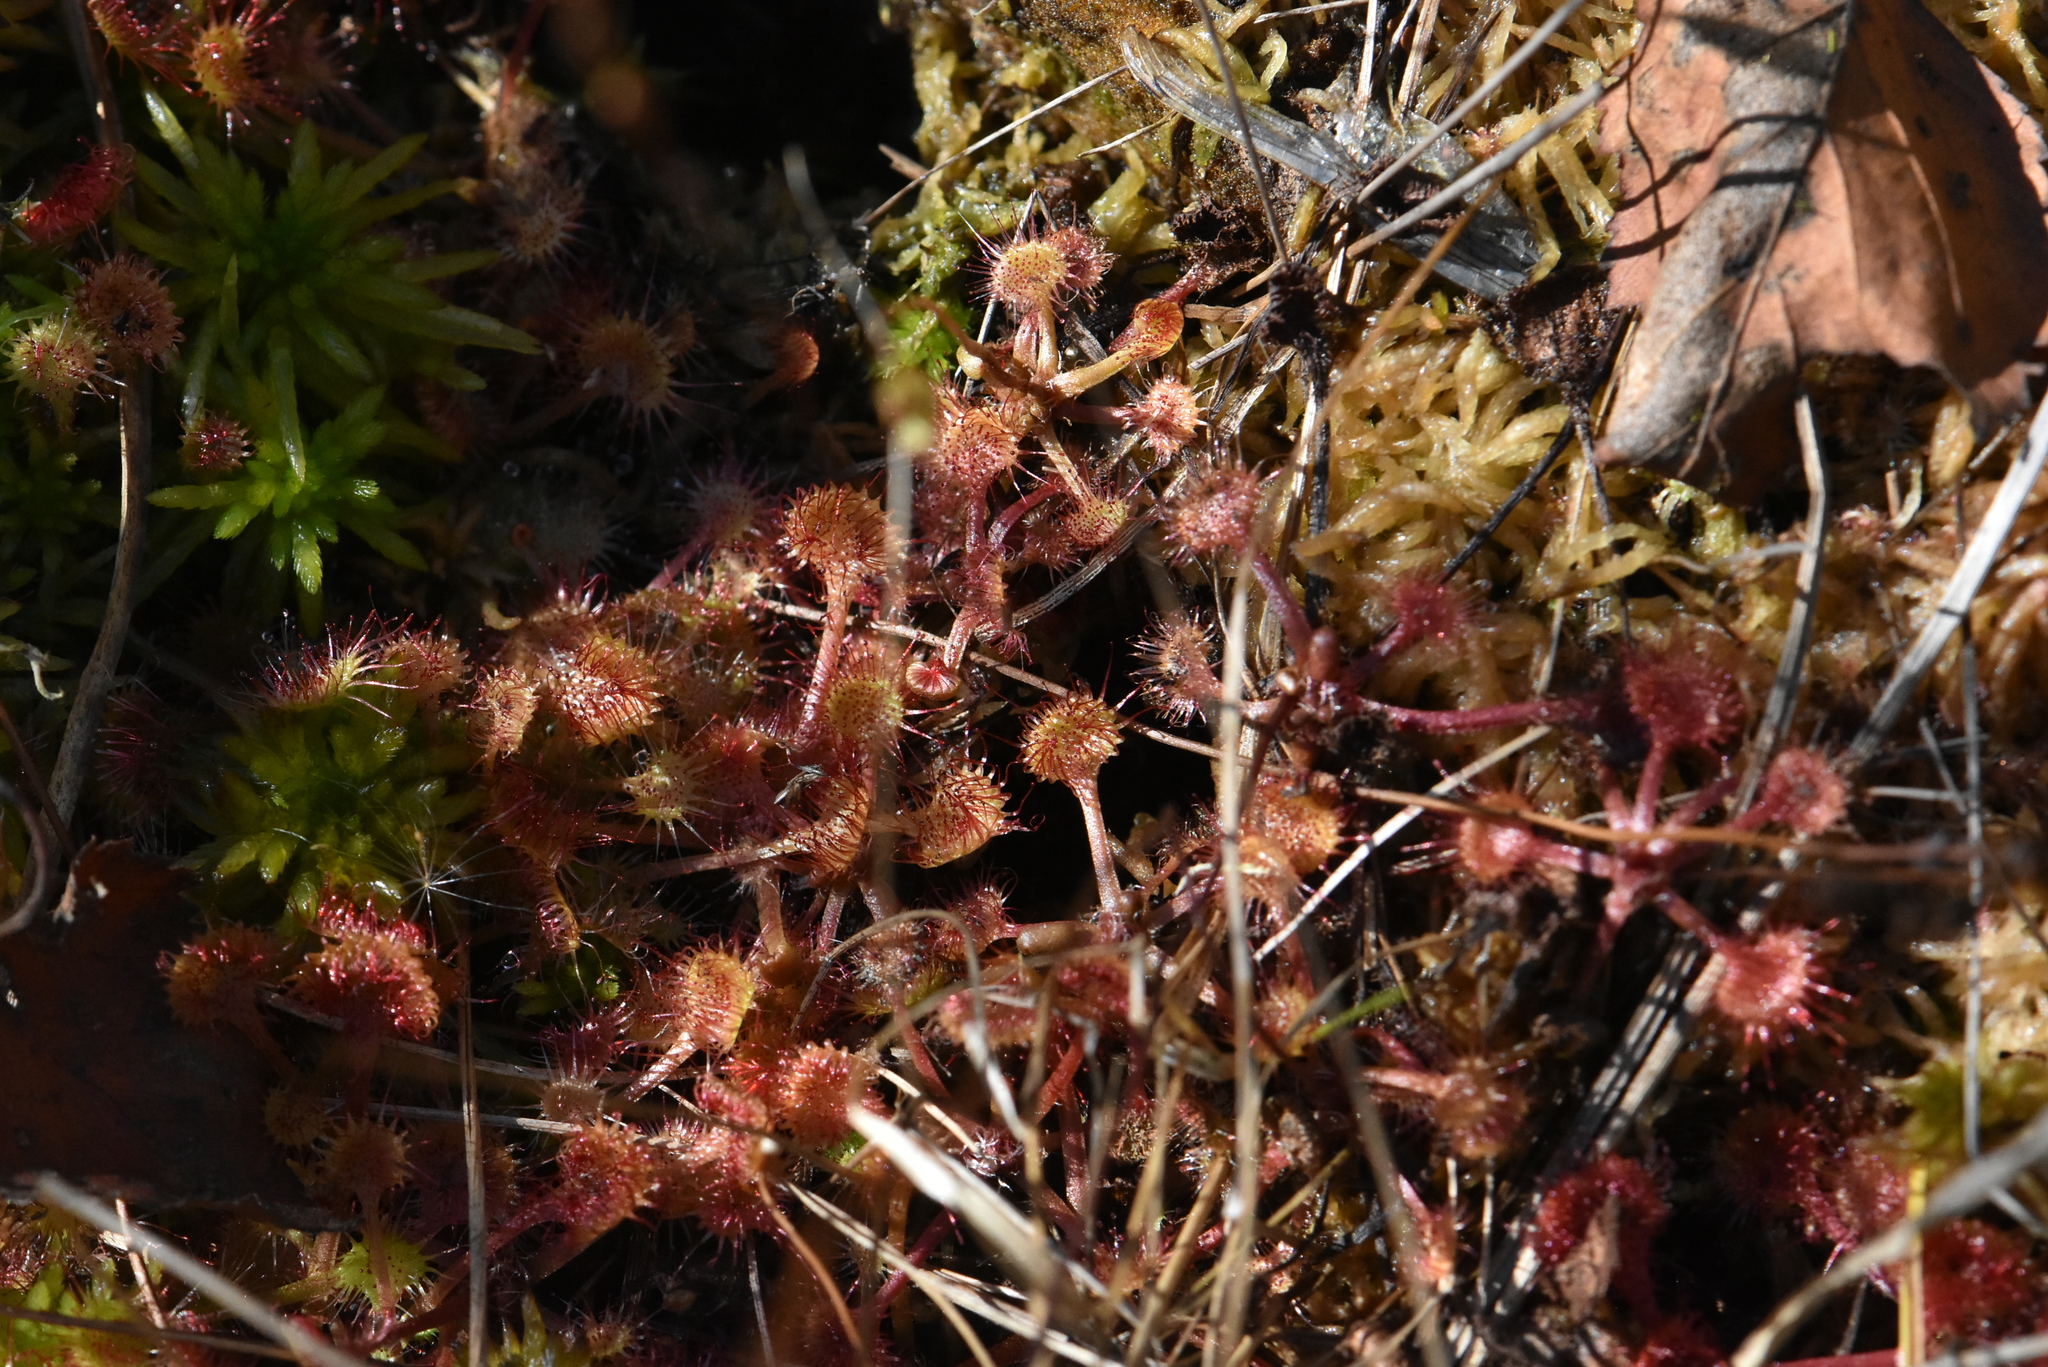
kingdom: Plantae
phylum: Tracheophyta
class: Magnoliopsida
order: Caryophyllales
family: Droseraceae
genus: Drosera
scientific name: Drosera rotundifolia
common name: Round-leaved sundew
